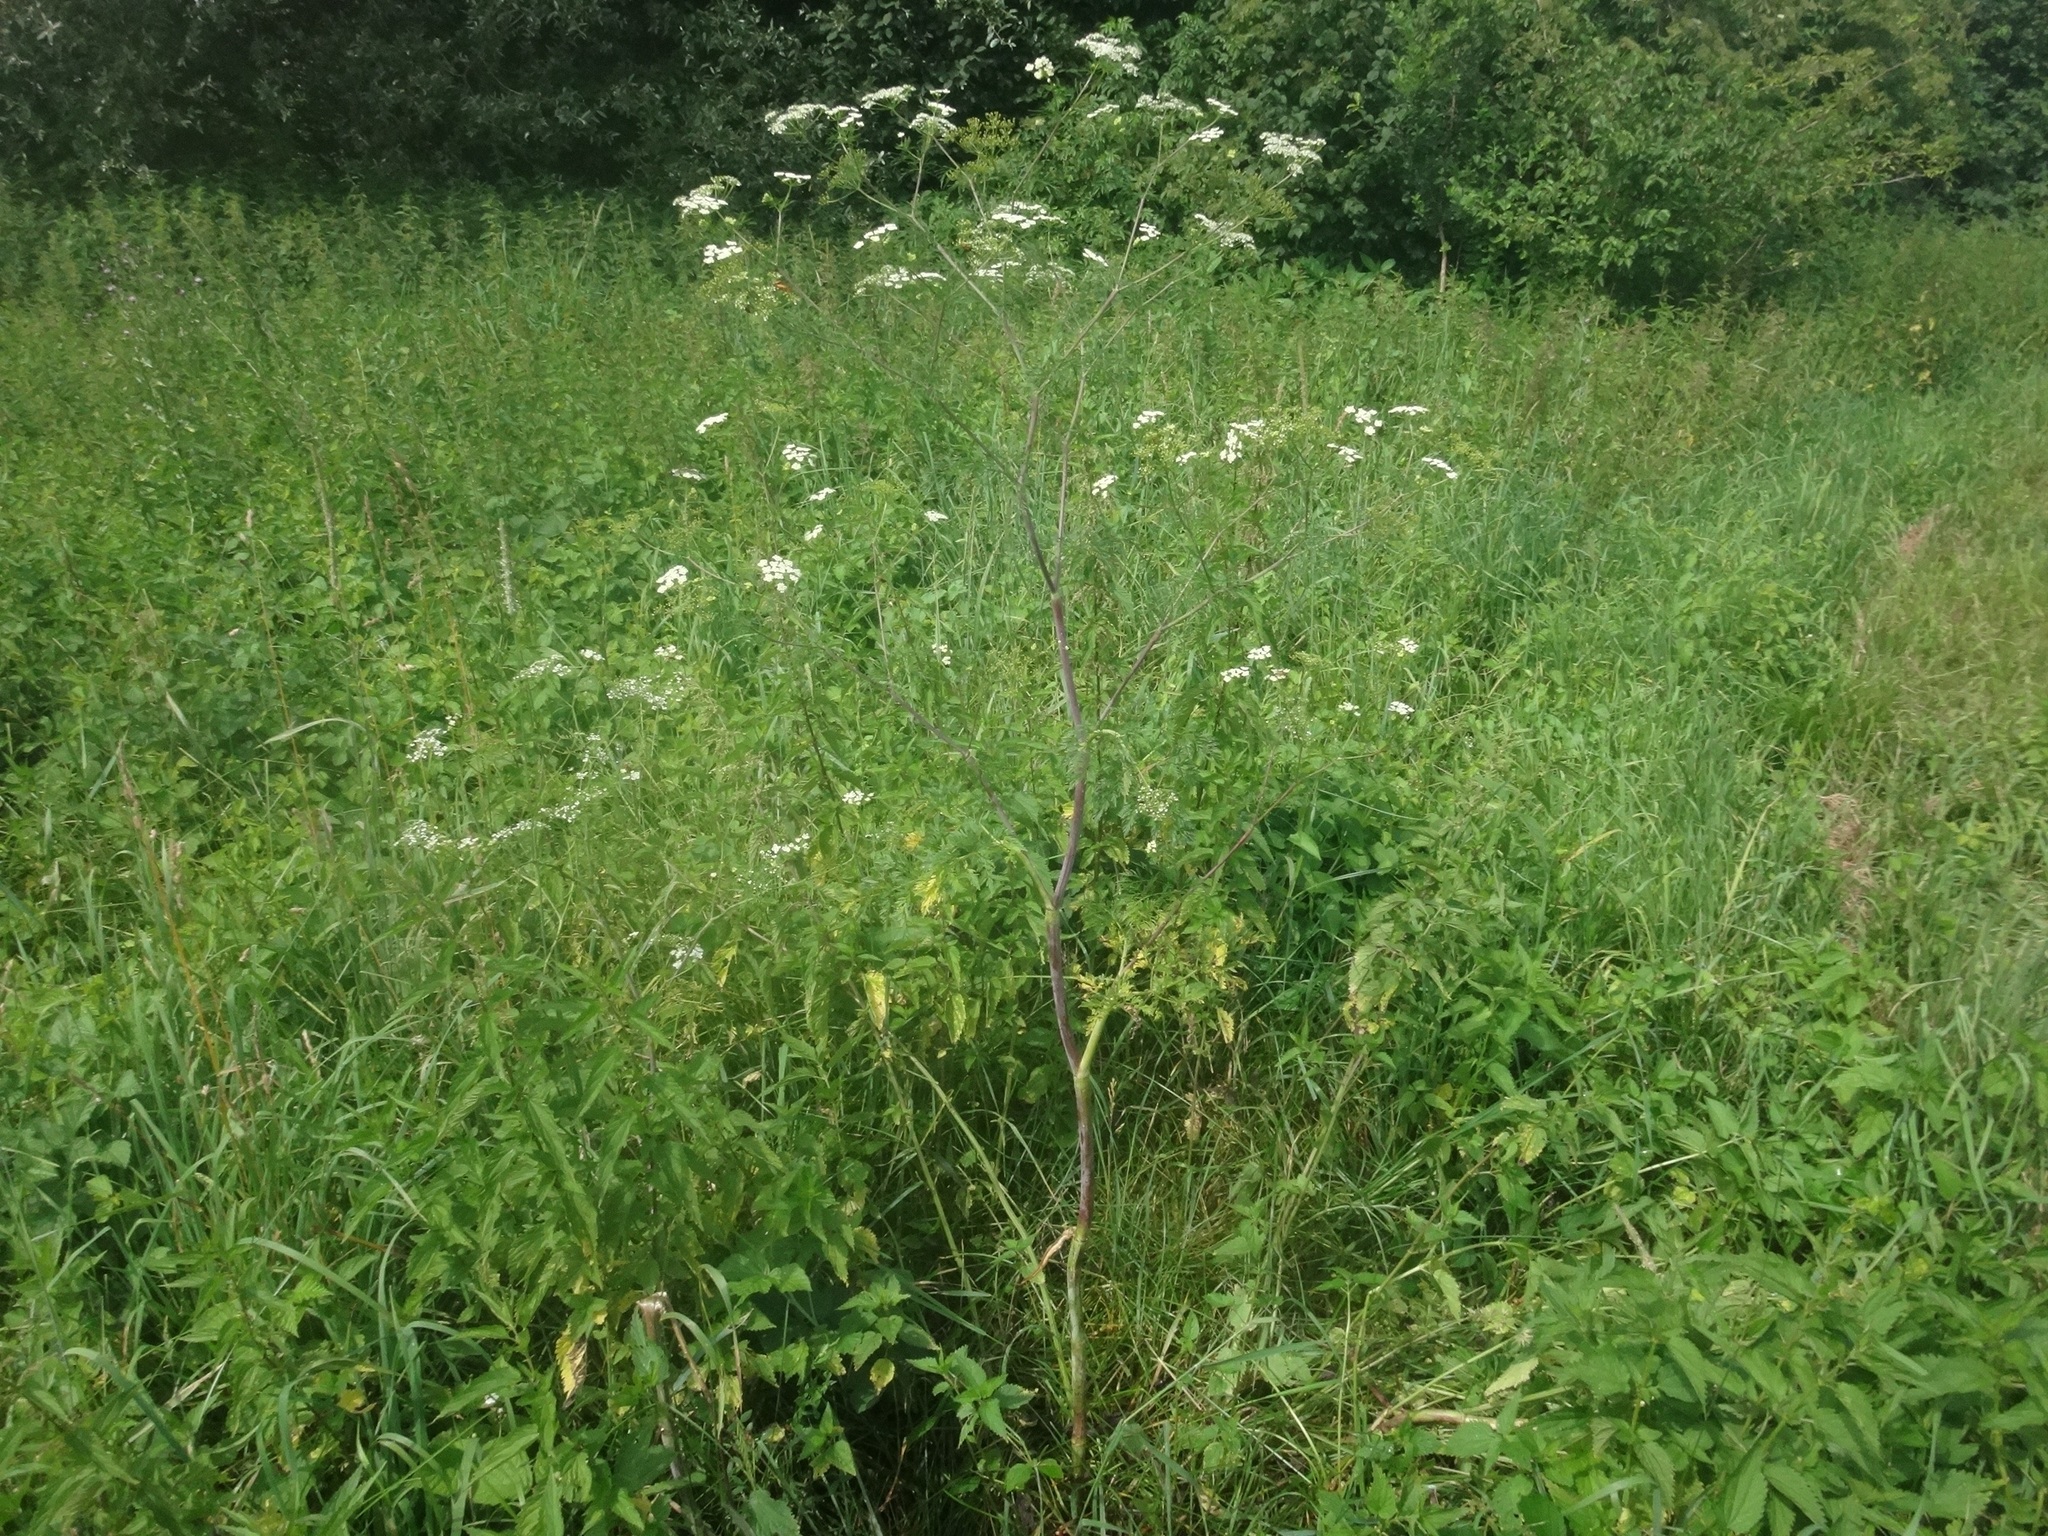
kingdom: Plantae
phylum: Tracheophyta
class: Magnoliopsida
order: Apiales
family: Apiaceae
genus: Chaerophyllum
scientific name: Chaerophyllum bulbosum
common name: Bulbous chervil
